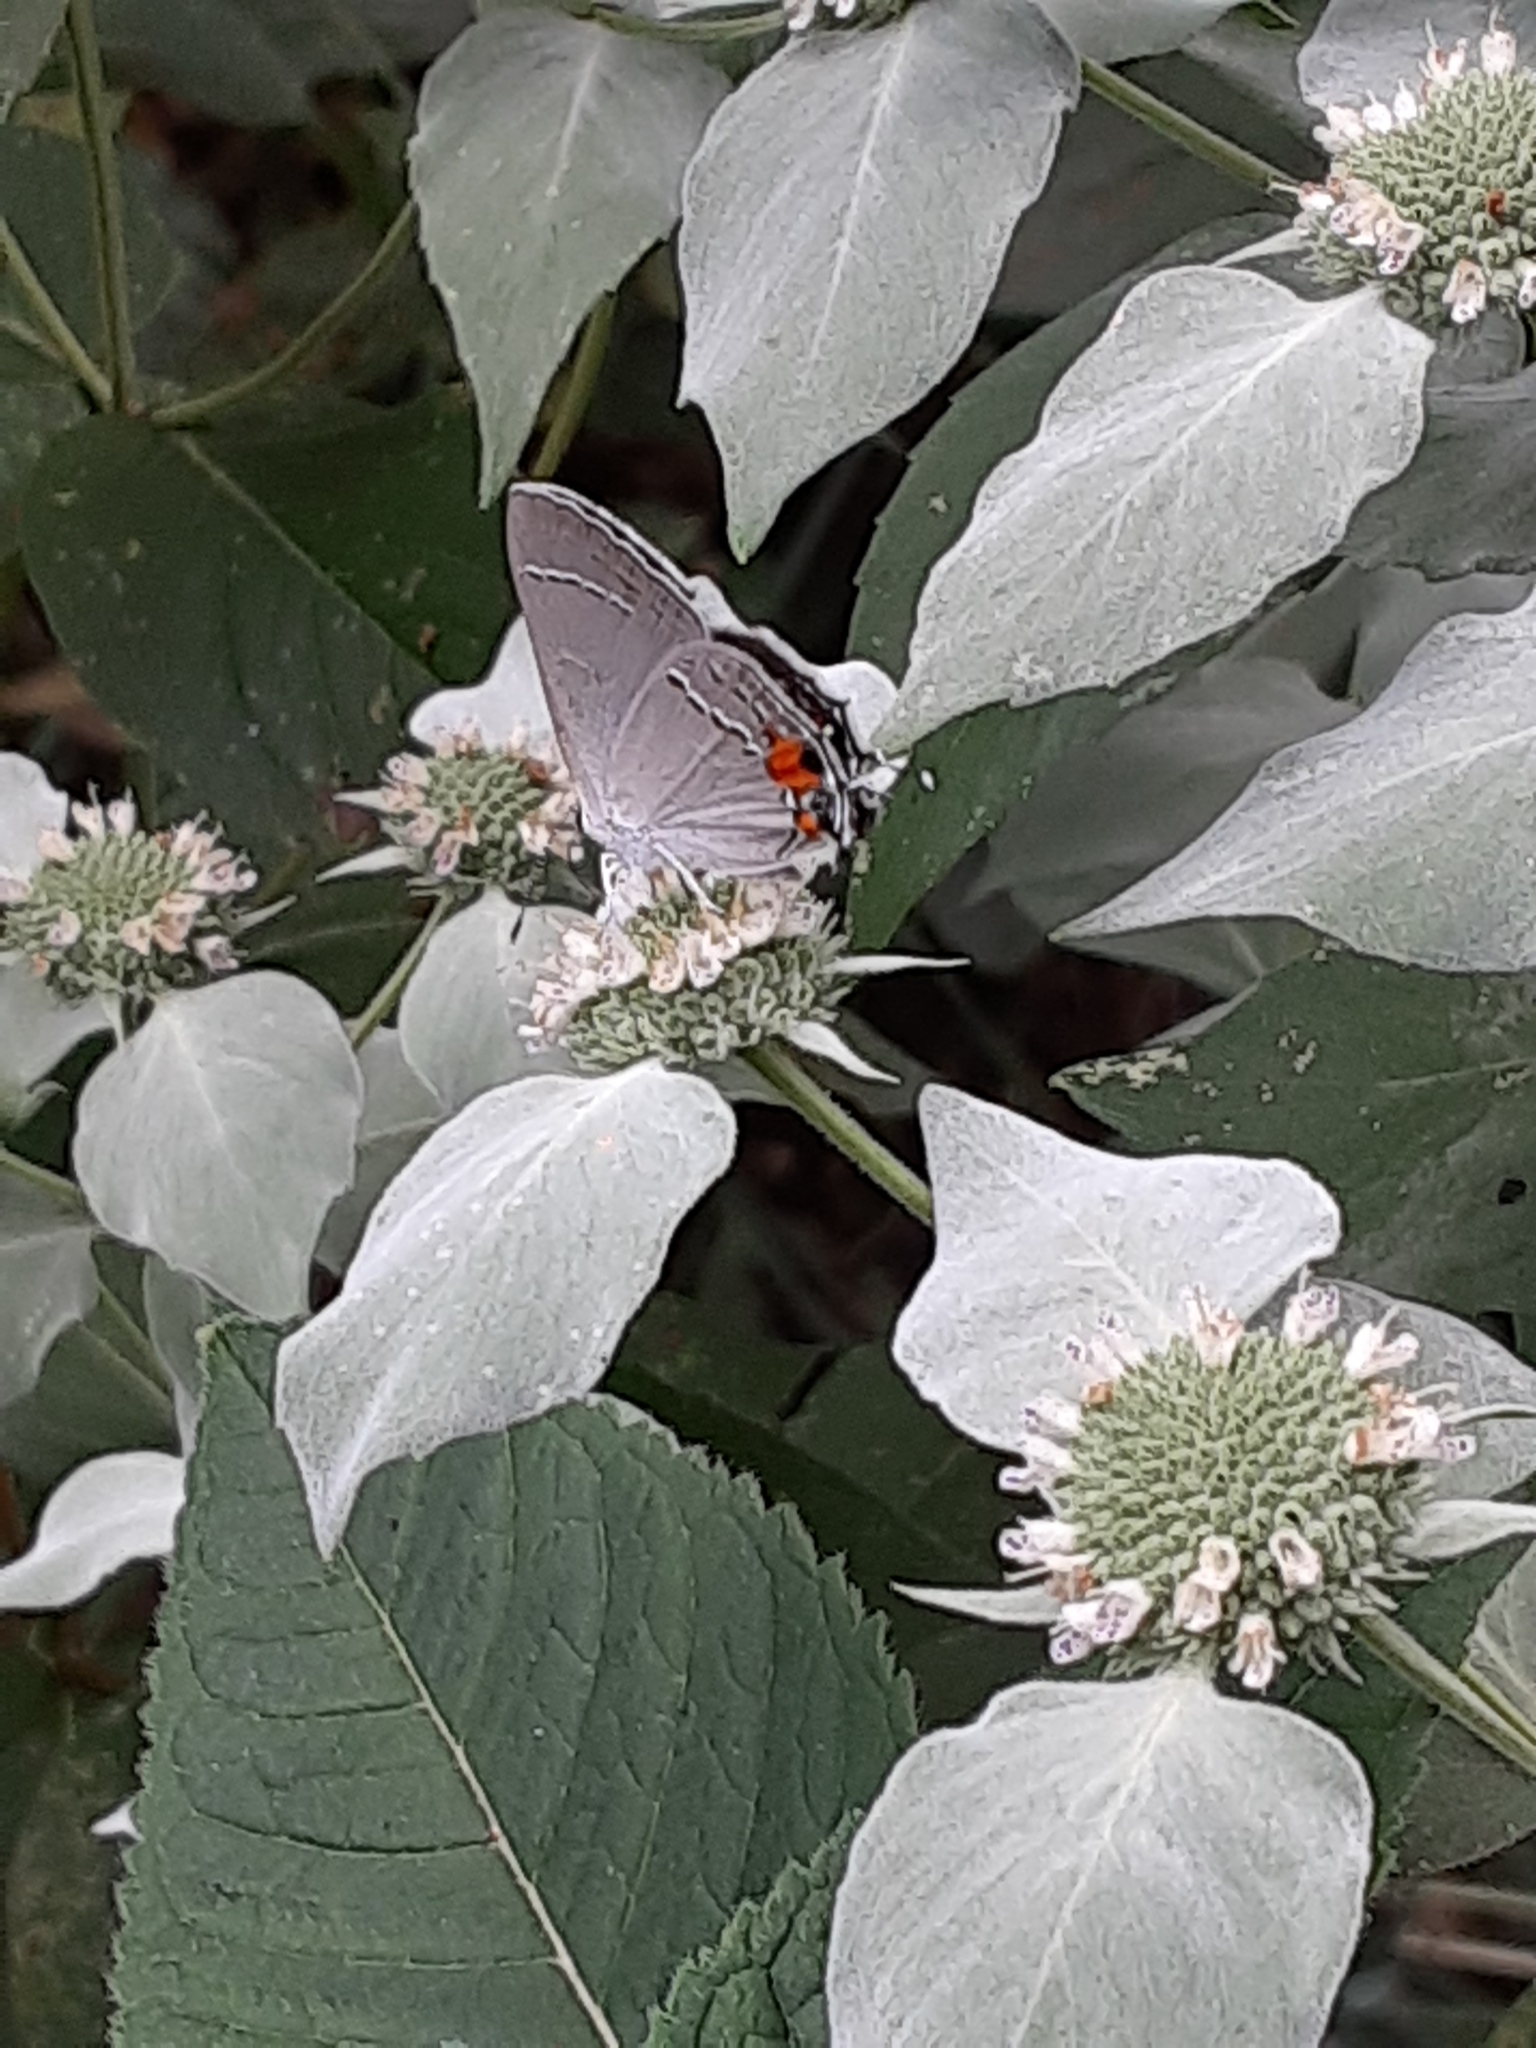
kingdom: Animalia
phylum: Arthropoda
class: Insecta
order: Lepidoptera
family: Lycaenidae
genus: Strymon
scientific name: Strymon melinus
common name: Gray hairstreak
